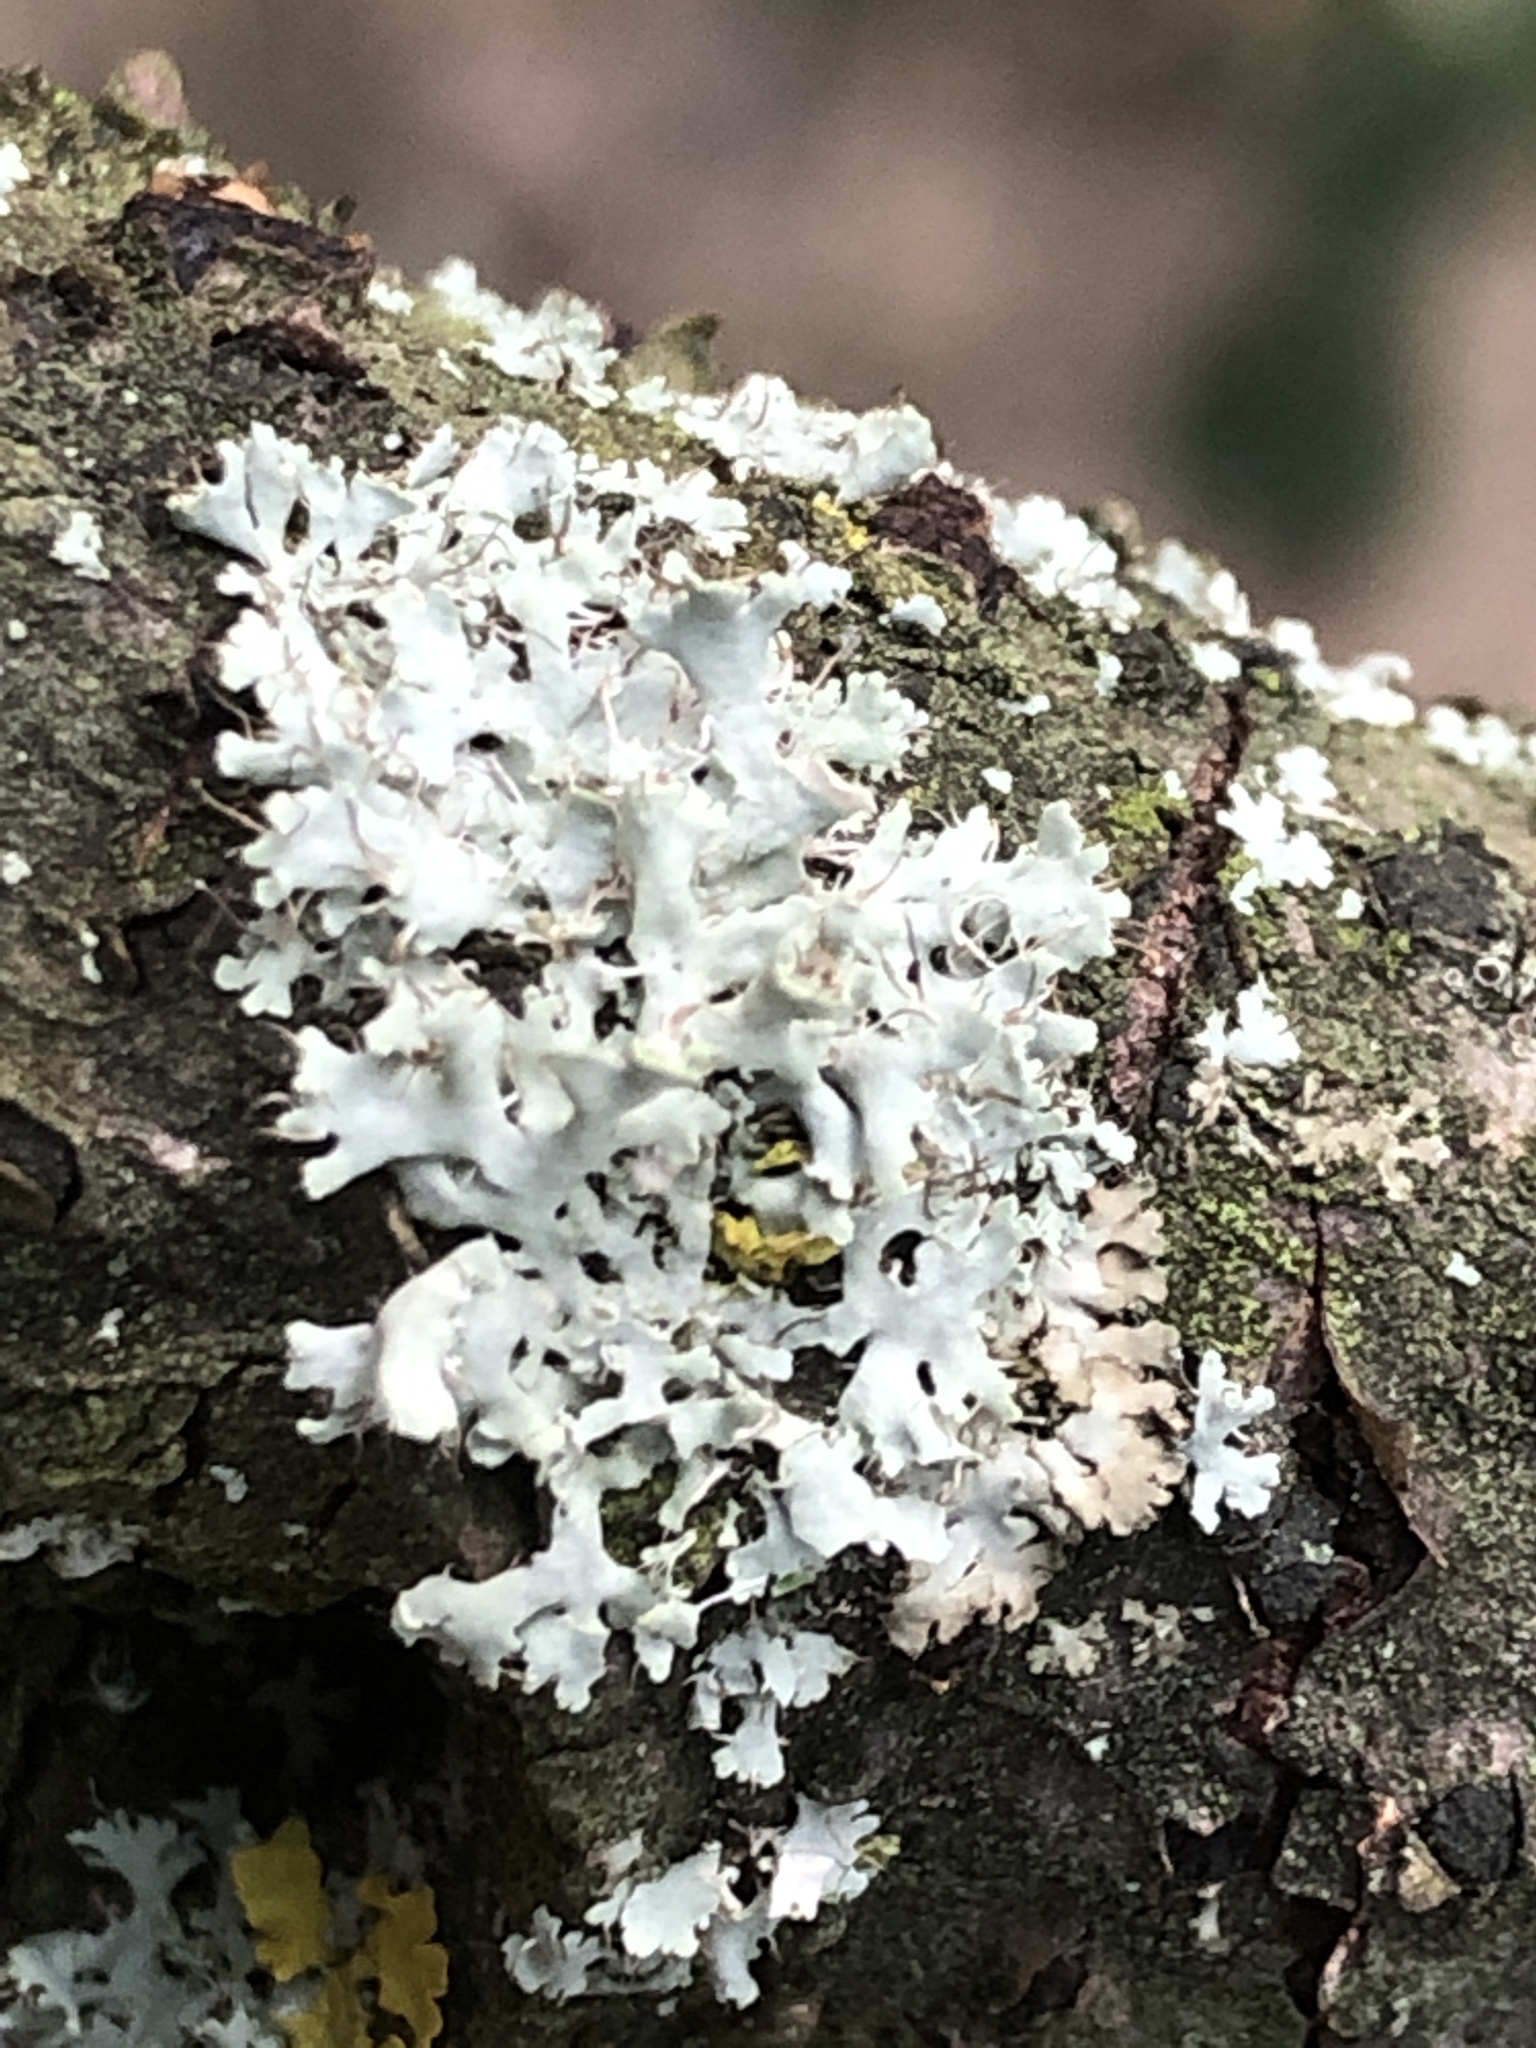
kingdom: Fungi
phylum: Ascomycota
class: Lecanoromycetes
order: Caliciales
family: Physciaceae
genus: Physcia
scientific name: Physcia adscendens
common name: Hooded rosette lichen
